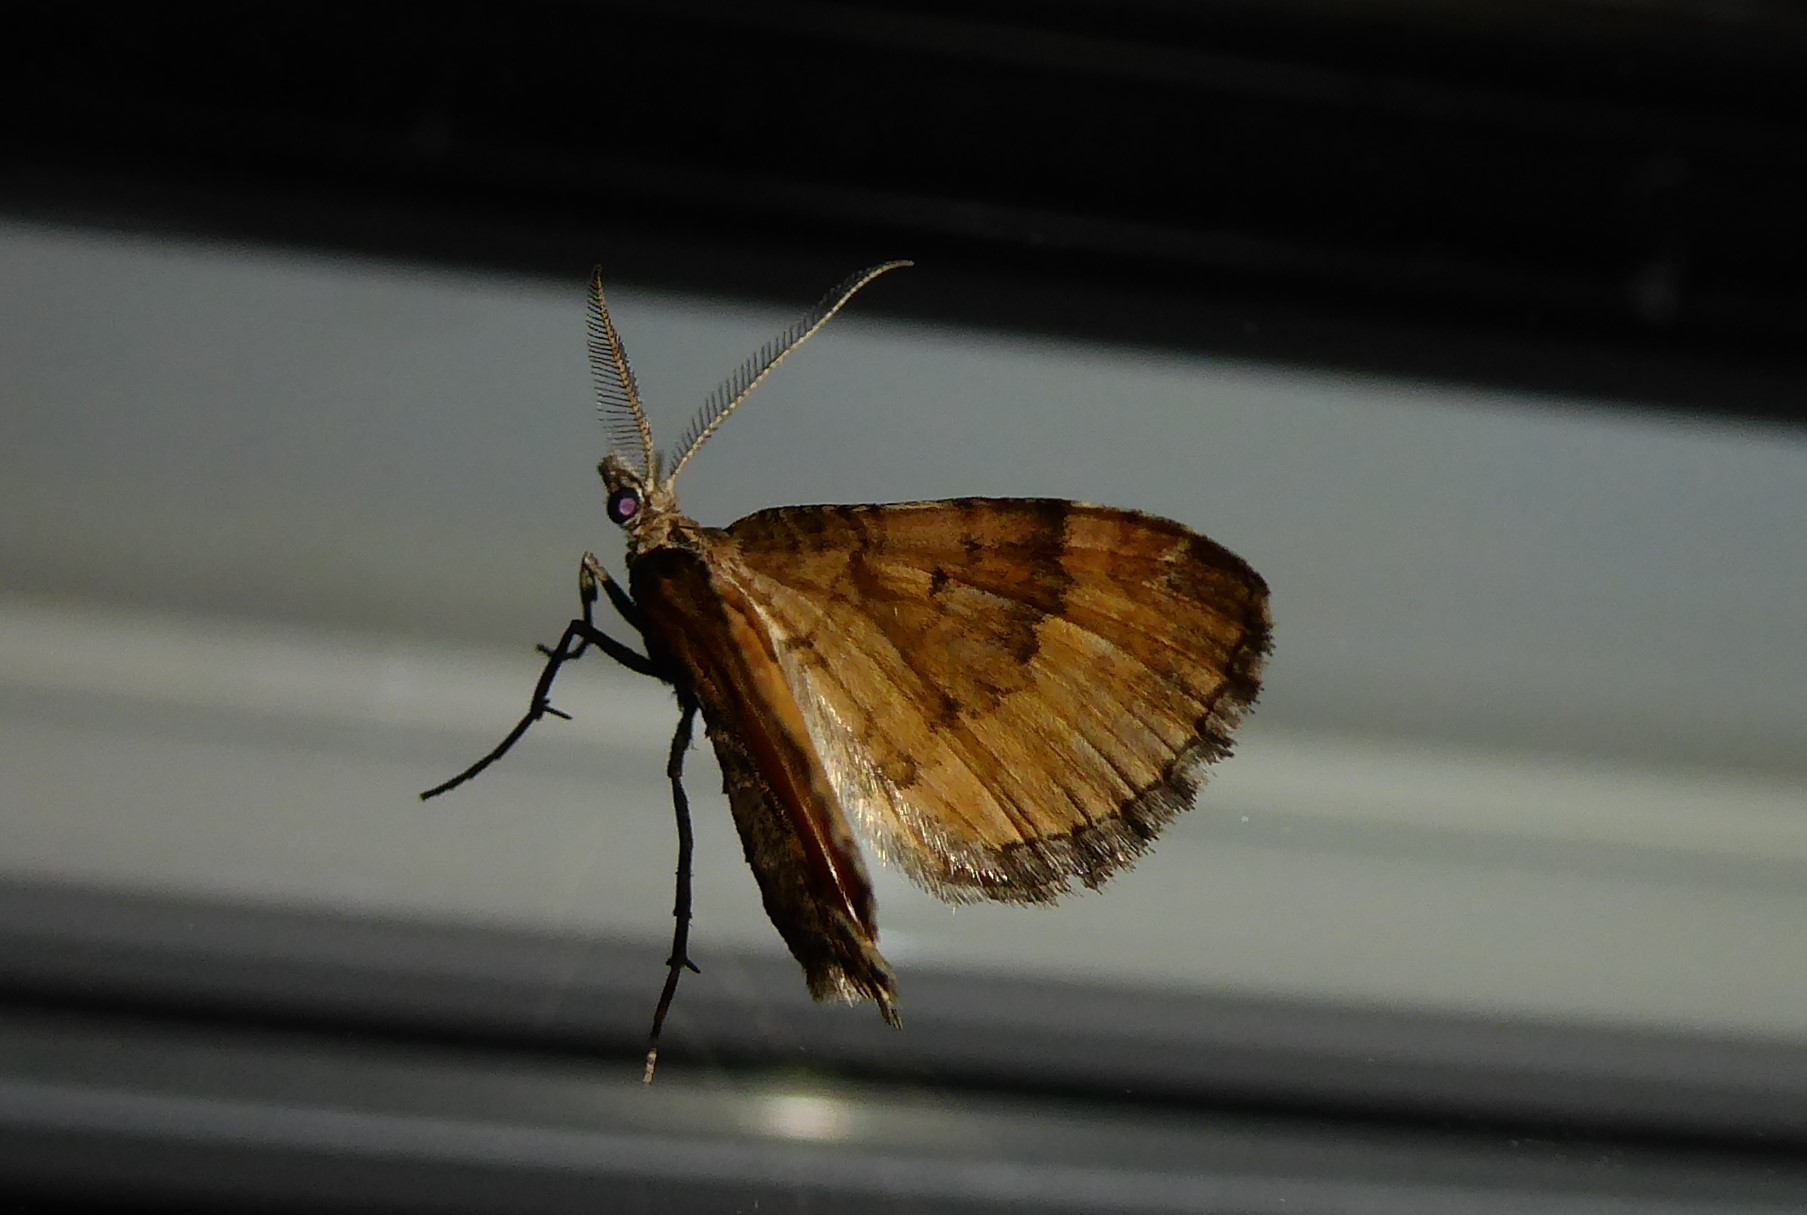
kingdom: Animalia
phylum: Arthropoda
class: Insecta
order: Lepidoptera
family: Geometridae
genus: Asaphodes
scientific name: Asaphodes aegrota
